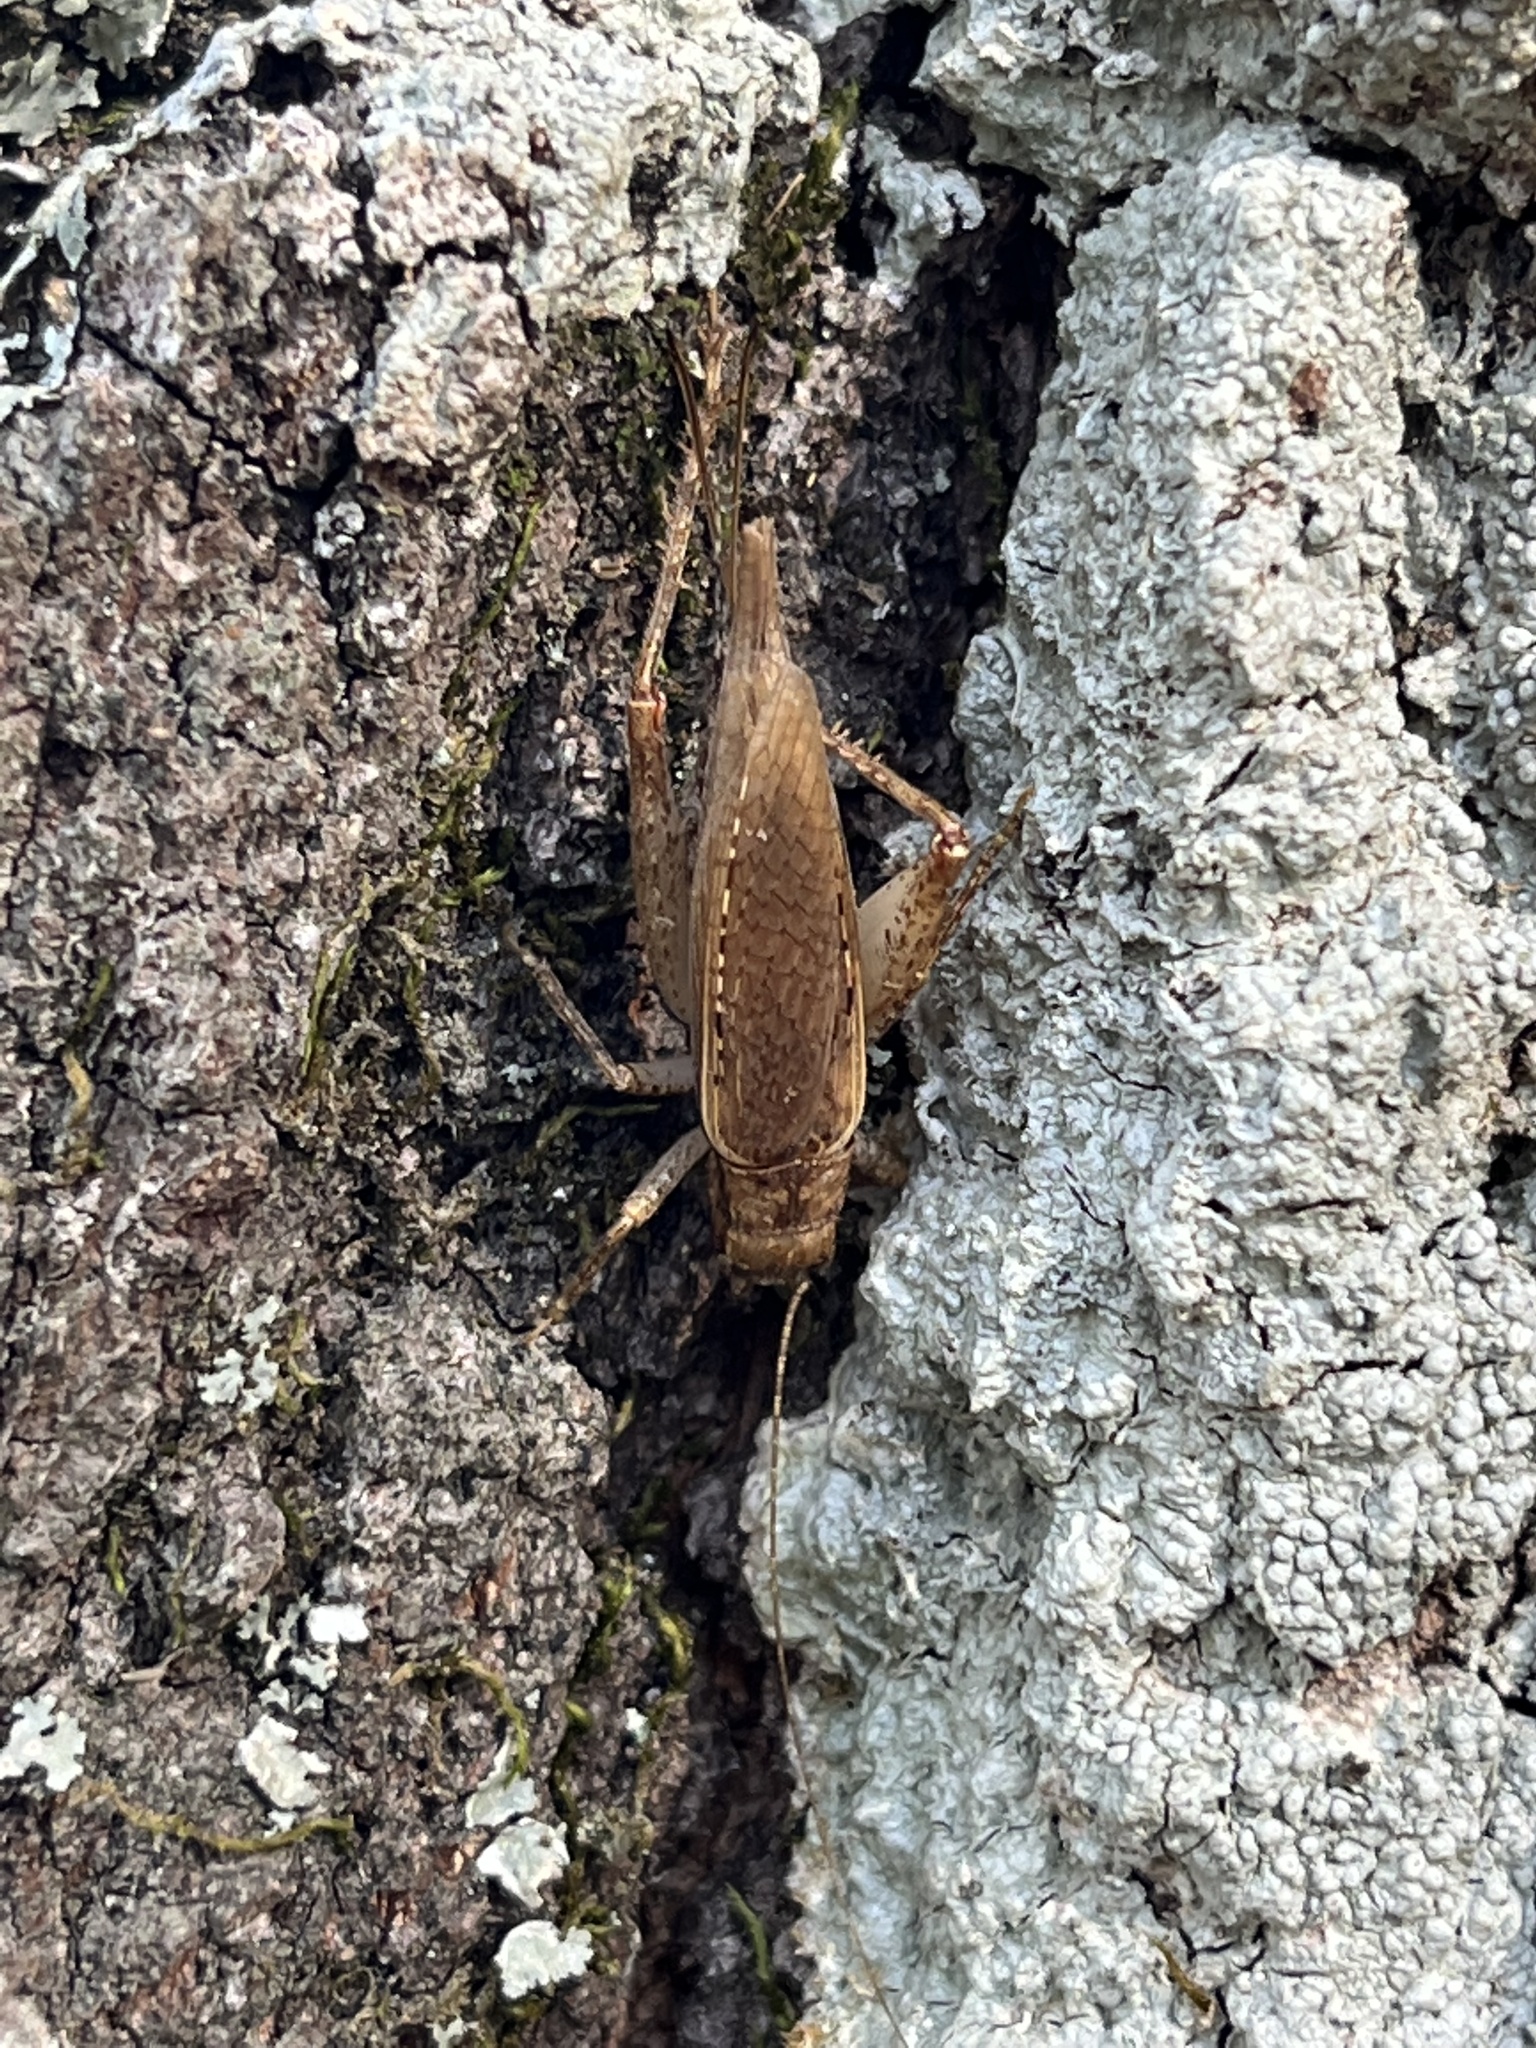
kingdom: Animalia
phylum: Arthropoda
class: Insecta
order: Orthoptera
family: Gryllidae
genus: Hapithus
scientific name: Hapithus saltator
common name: Jumping bush cricket
